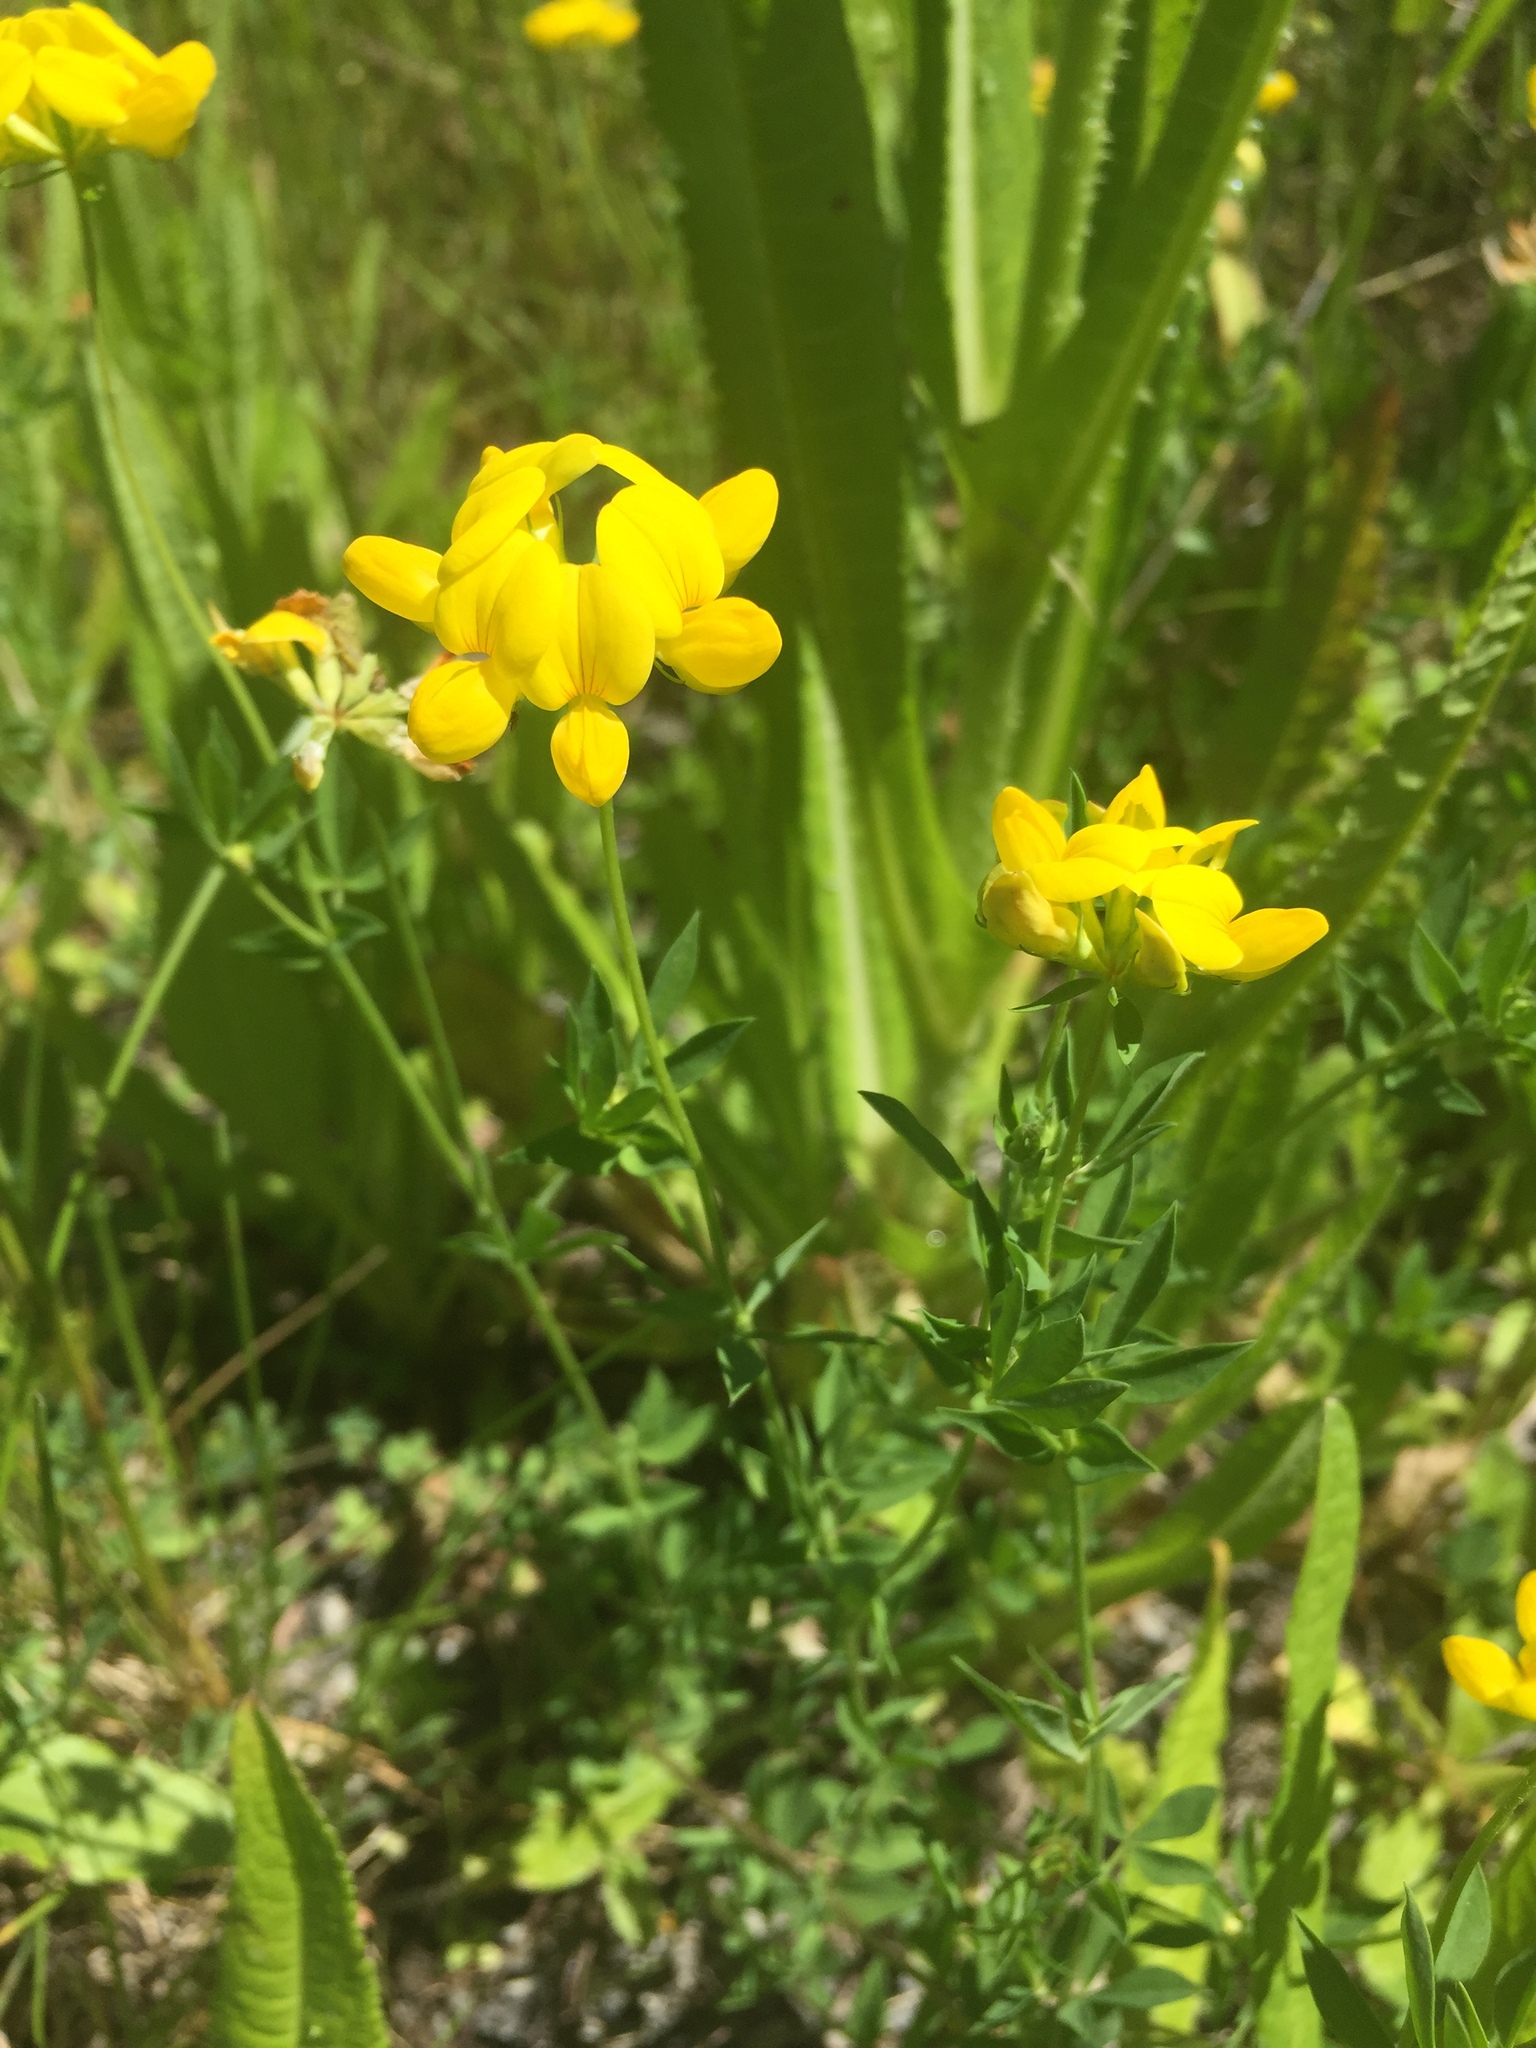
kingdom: Plantae
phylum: Tracheophyta
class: Magnoliopsida
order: Fabales
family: Fabaceae
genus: Lotus
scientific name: Lotus tenuis
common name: Narrow-leaved bird's-foot-trefoil
